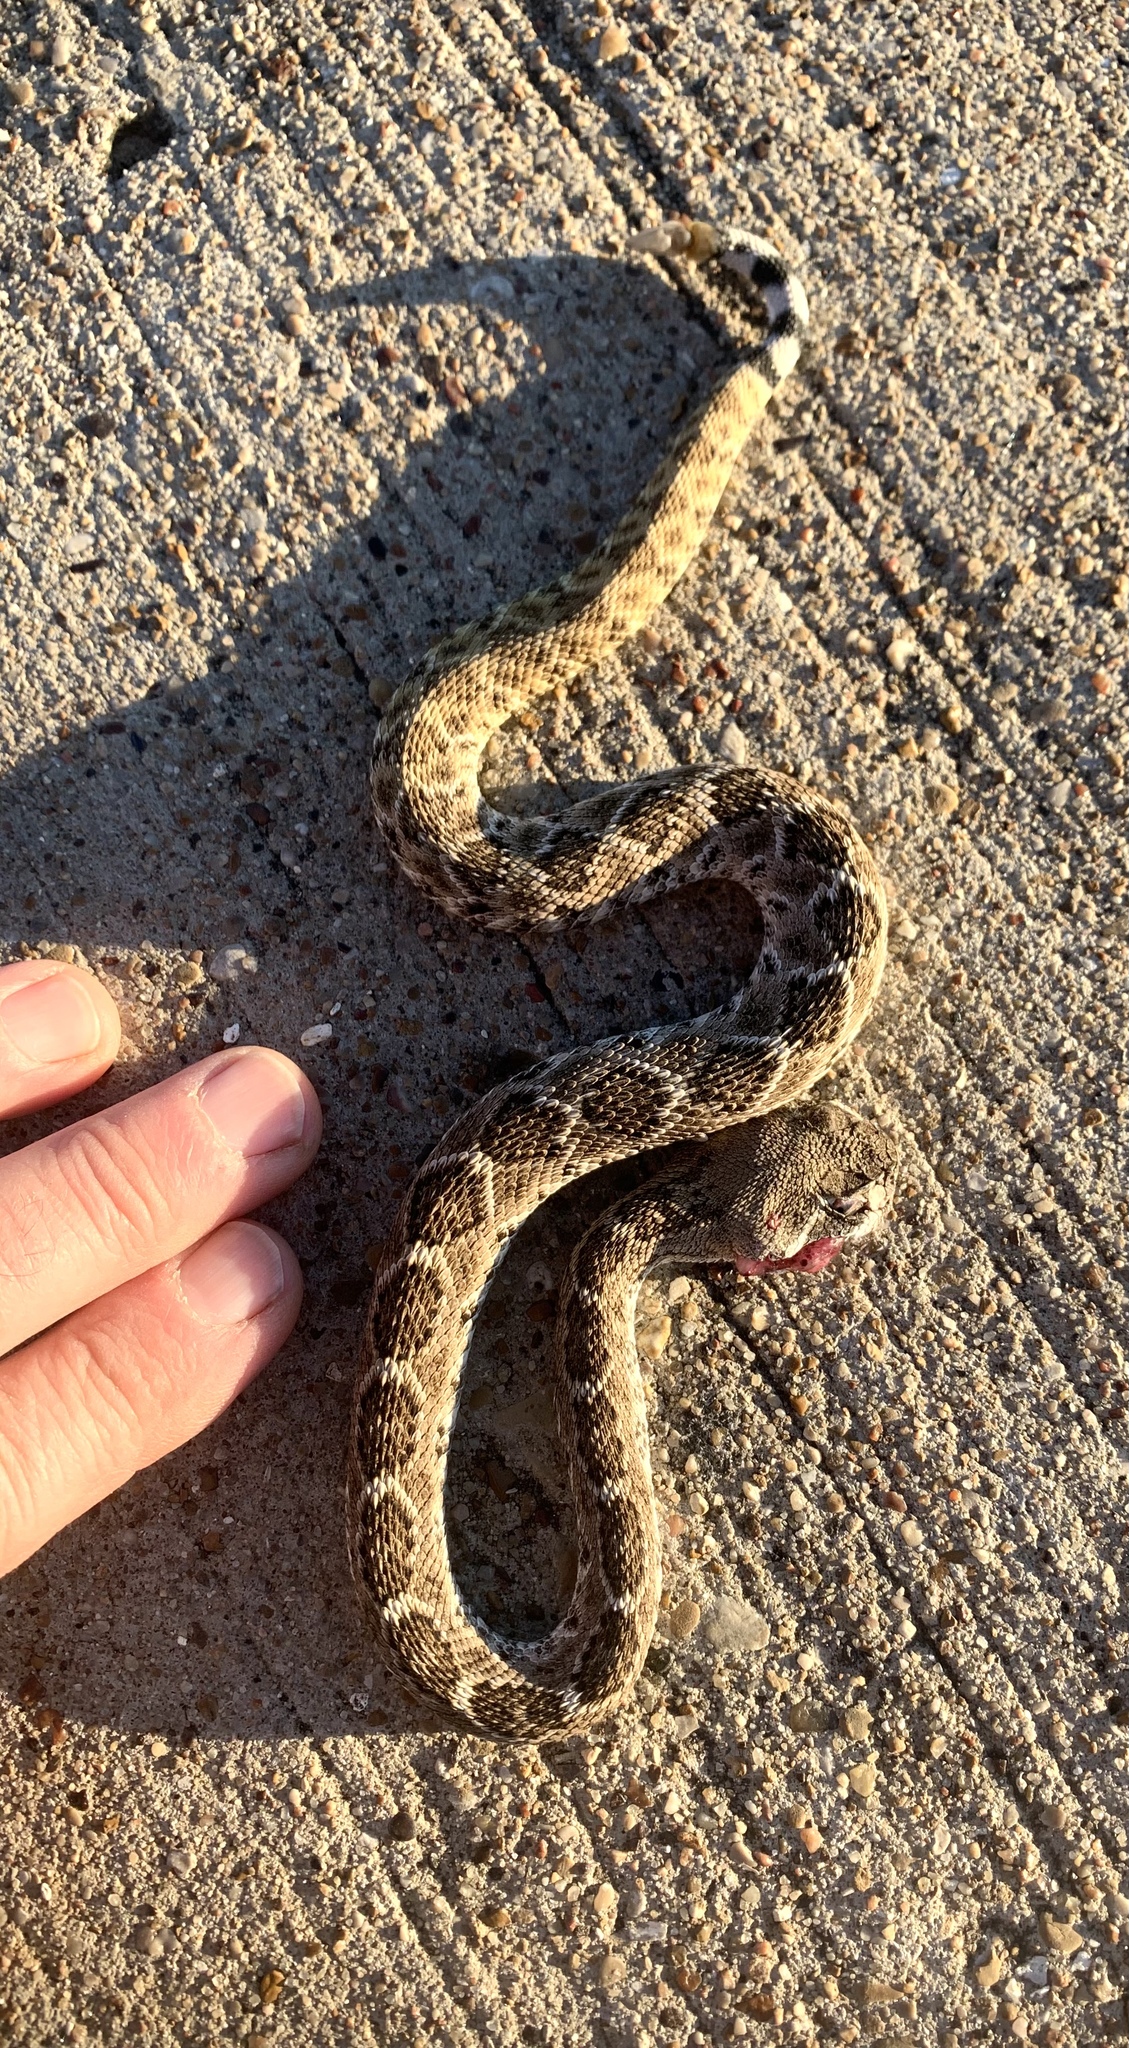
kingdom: Animalia
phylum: Chordata
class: Squamata
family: Viperidae
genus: Crotalus
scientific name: Crotalus atrox
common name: Western diamond-backed rattlesnake
